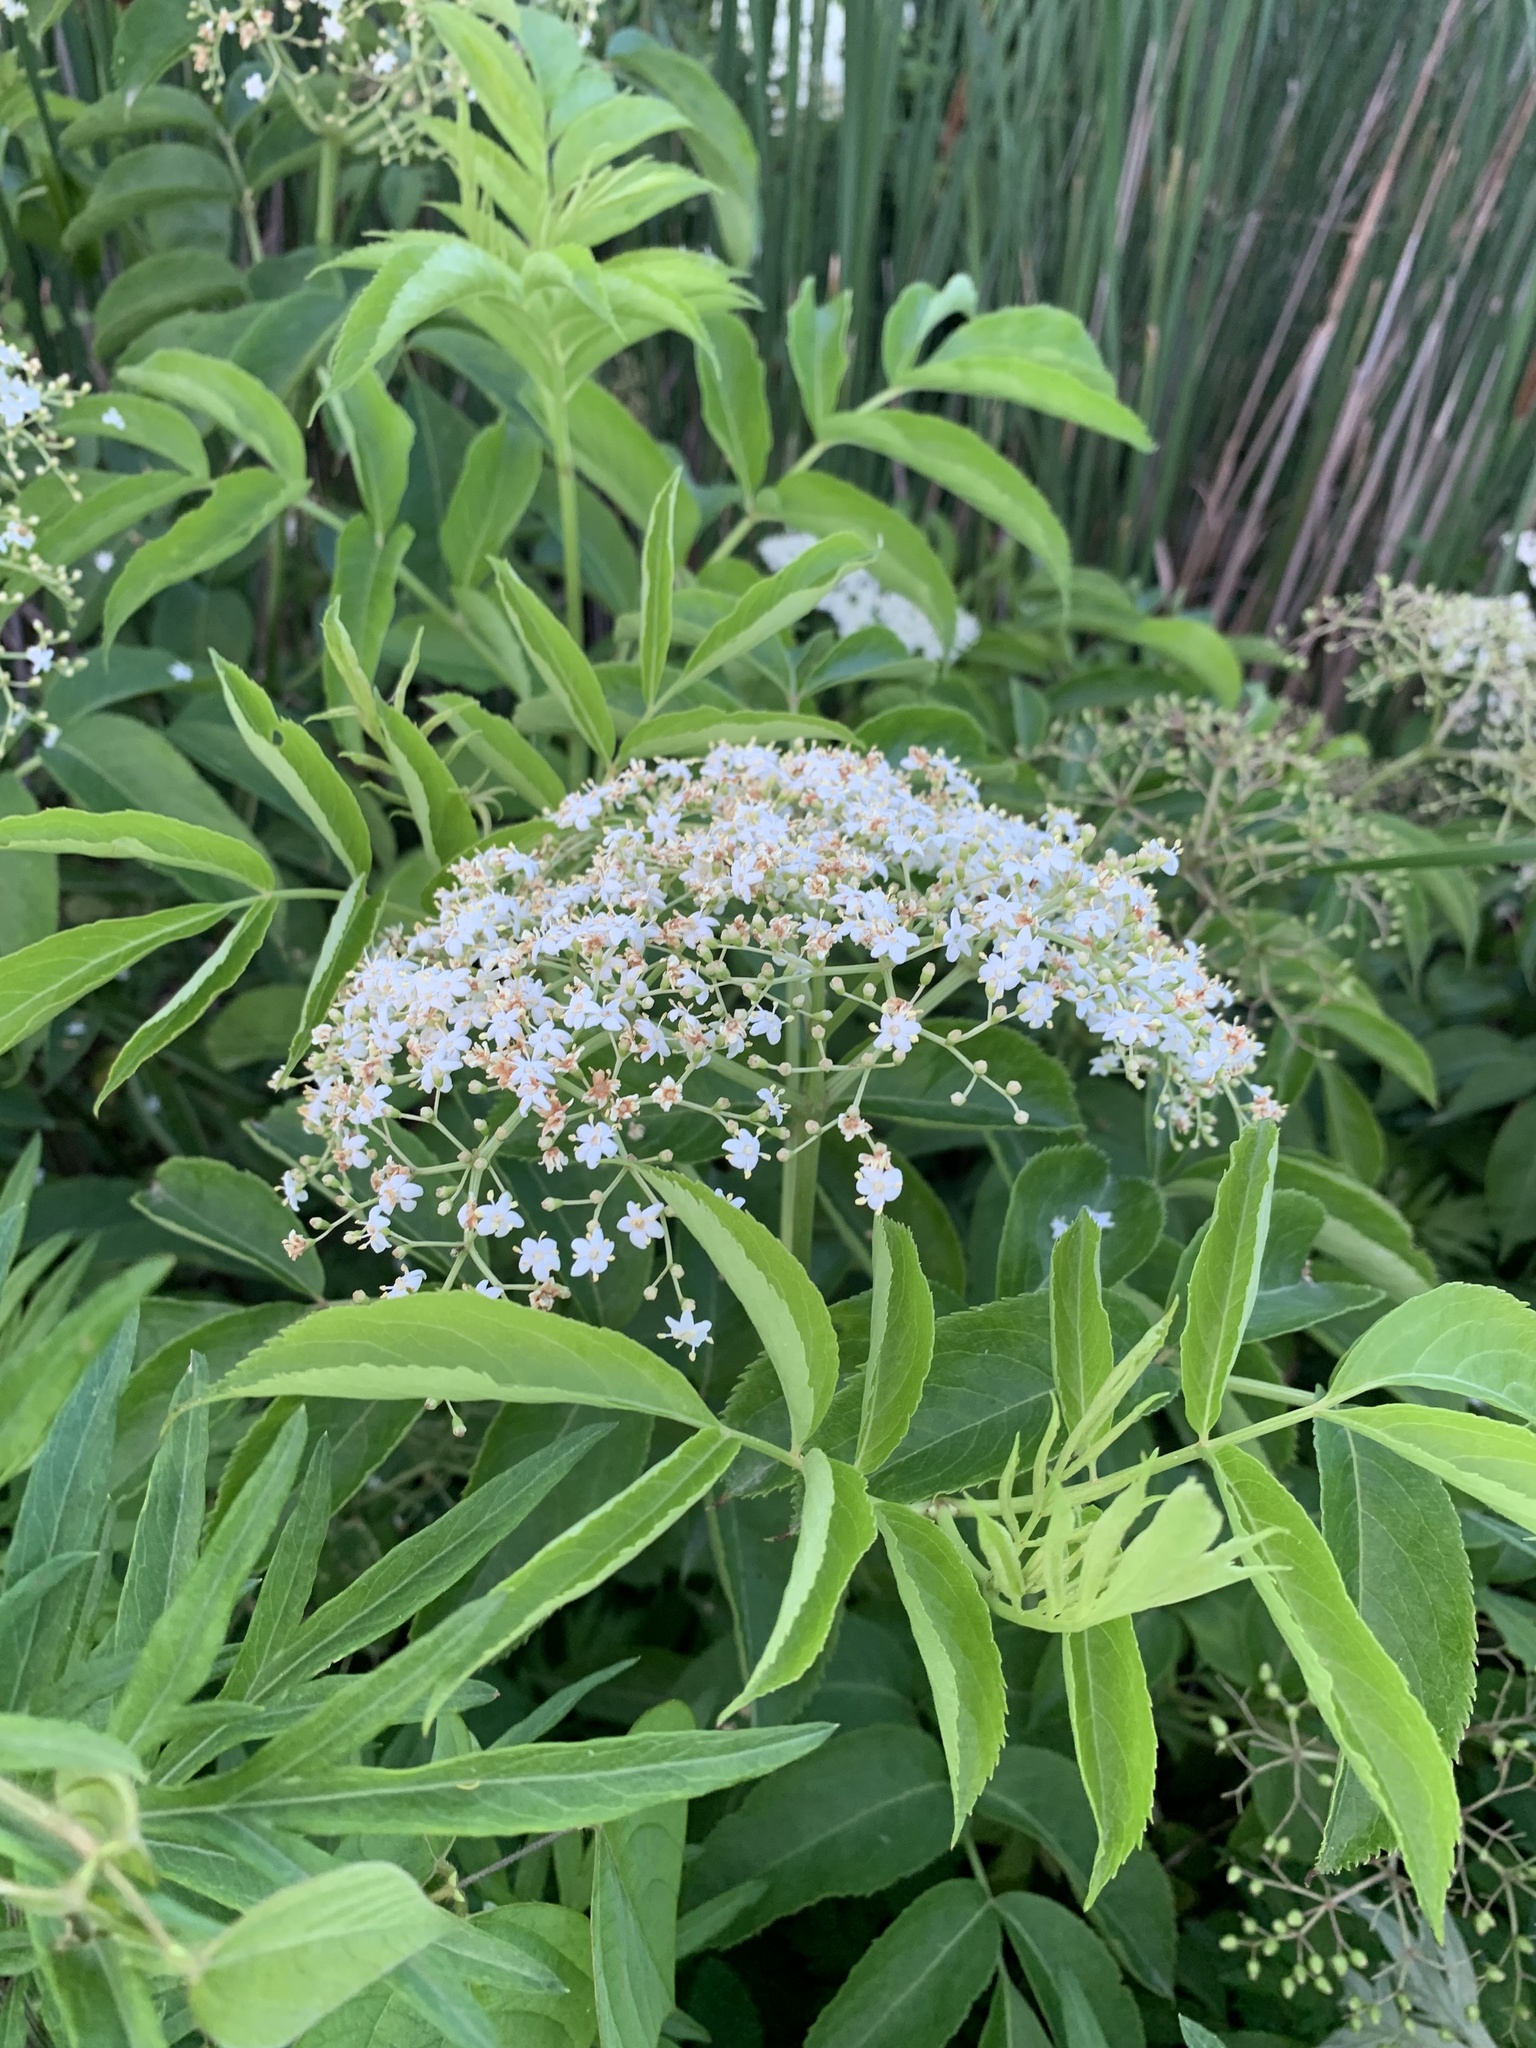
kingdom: Plantae
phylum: Tracheophyta
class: Magnoliopsida
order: Dipsacales
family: Viburnaceae
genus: Sambucus
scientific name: Sambucus canadensis
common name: American elder
